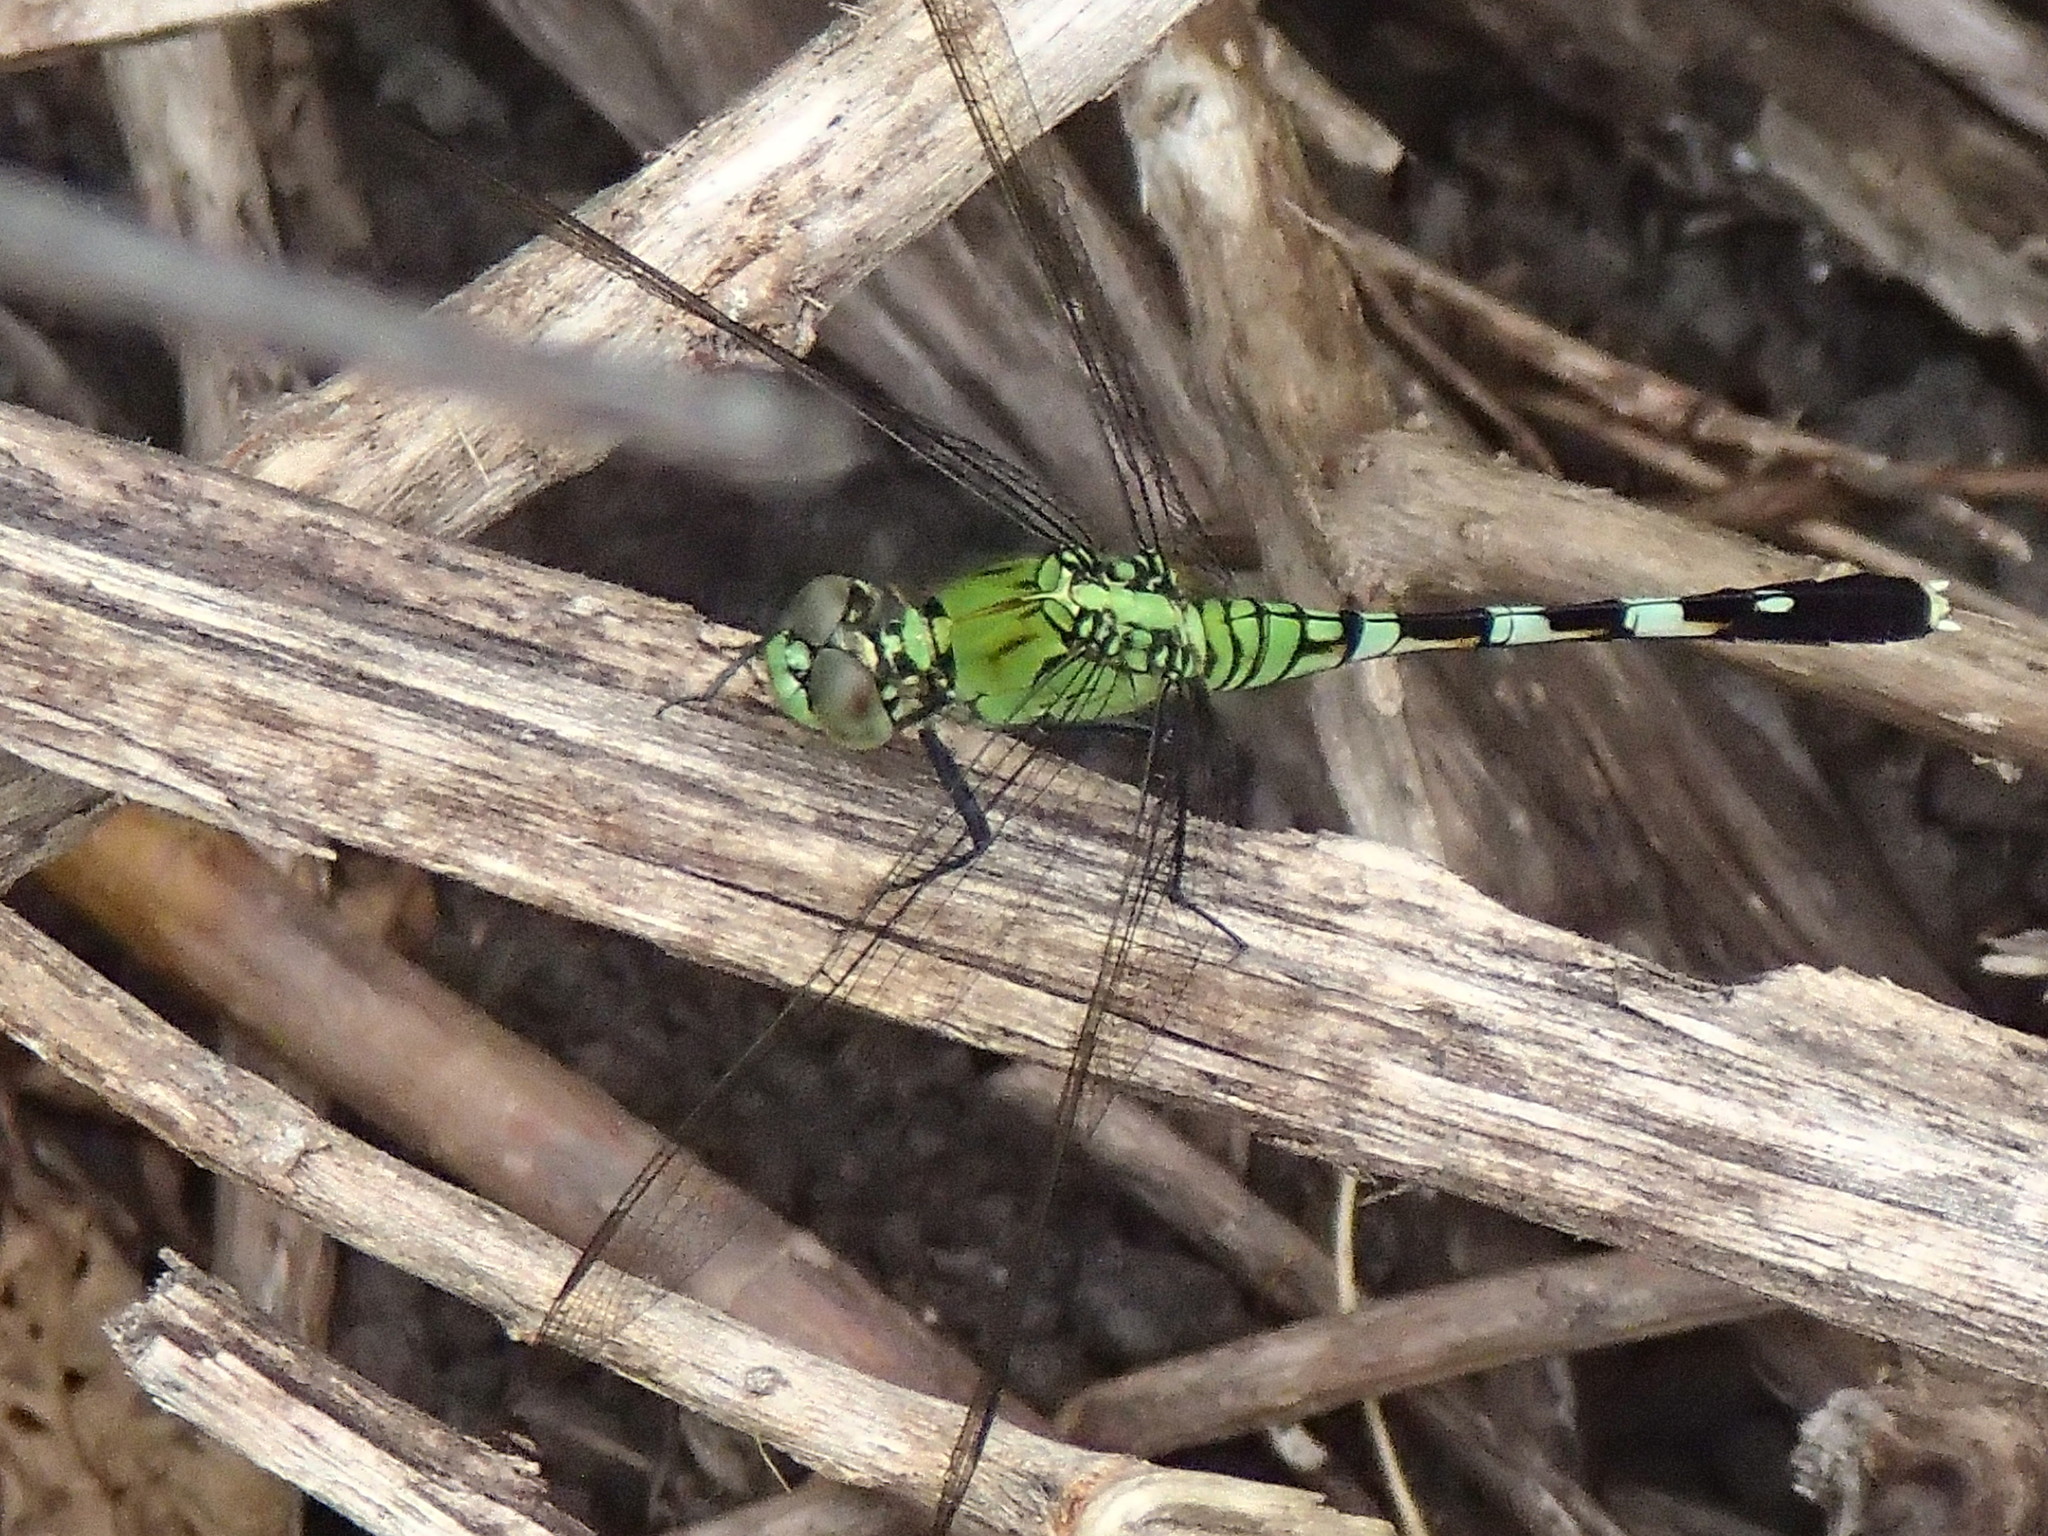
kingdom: Animalia
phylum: Arthropoda
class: Insecta
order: Odonata
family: Libellulidae
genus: Erythemis
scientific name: Erythemis simplicicollis
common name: Eastern pondhawk
